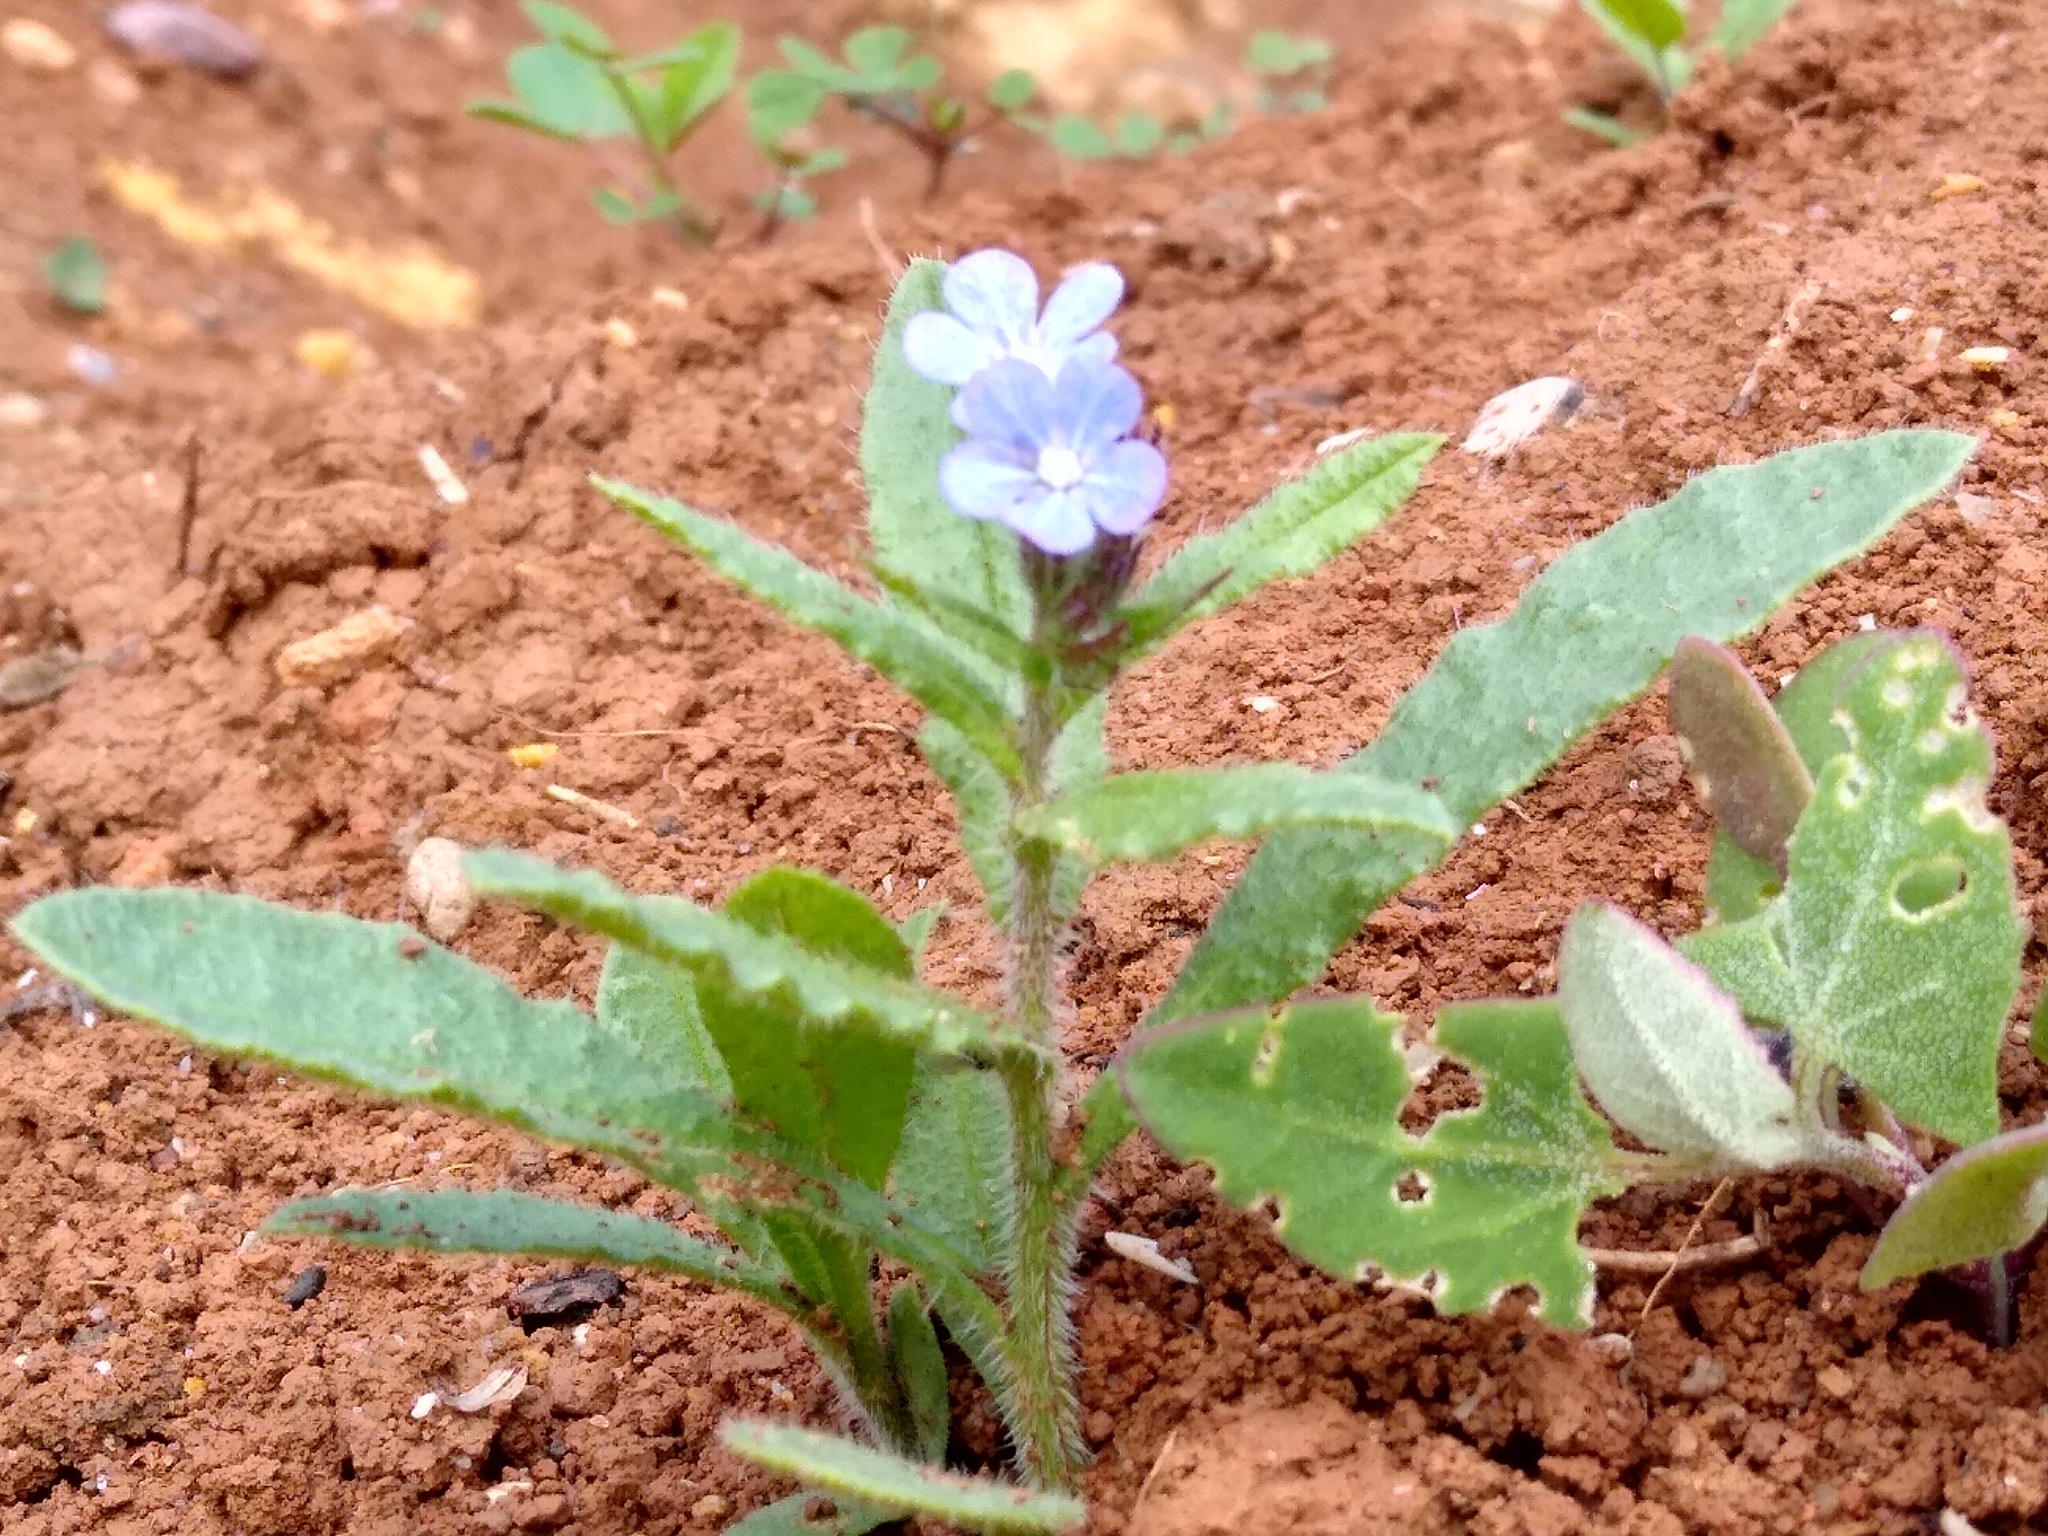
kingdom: Plantae
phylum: Tracheophyta
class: Magnoliopsida
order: Boraginales
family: Boraginaceae
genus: Lycopsis
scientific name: Lycopsis arvensis
